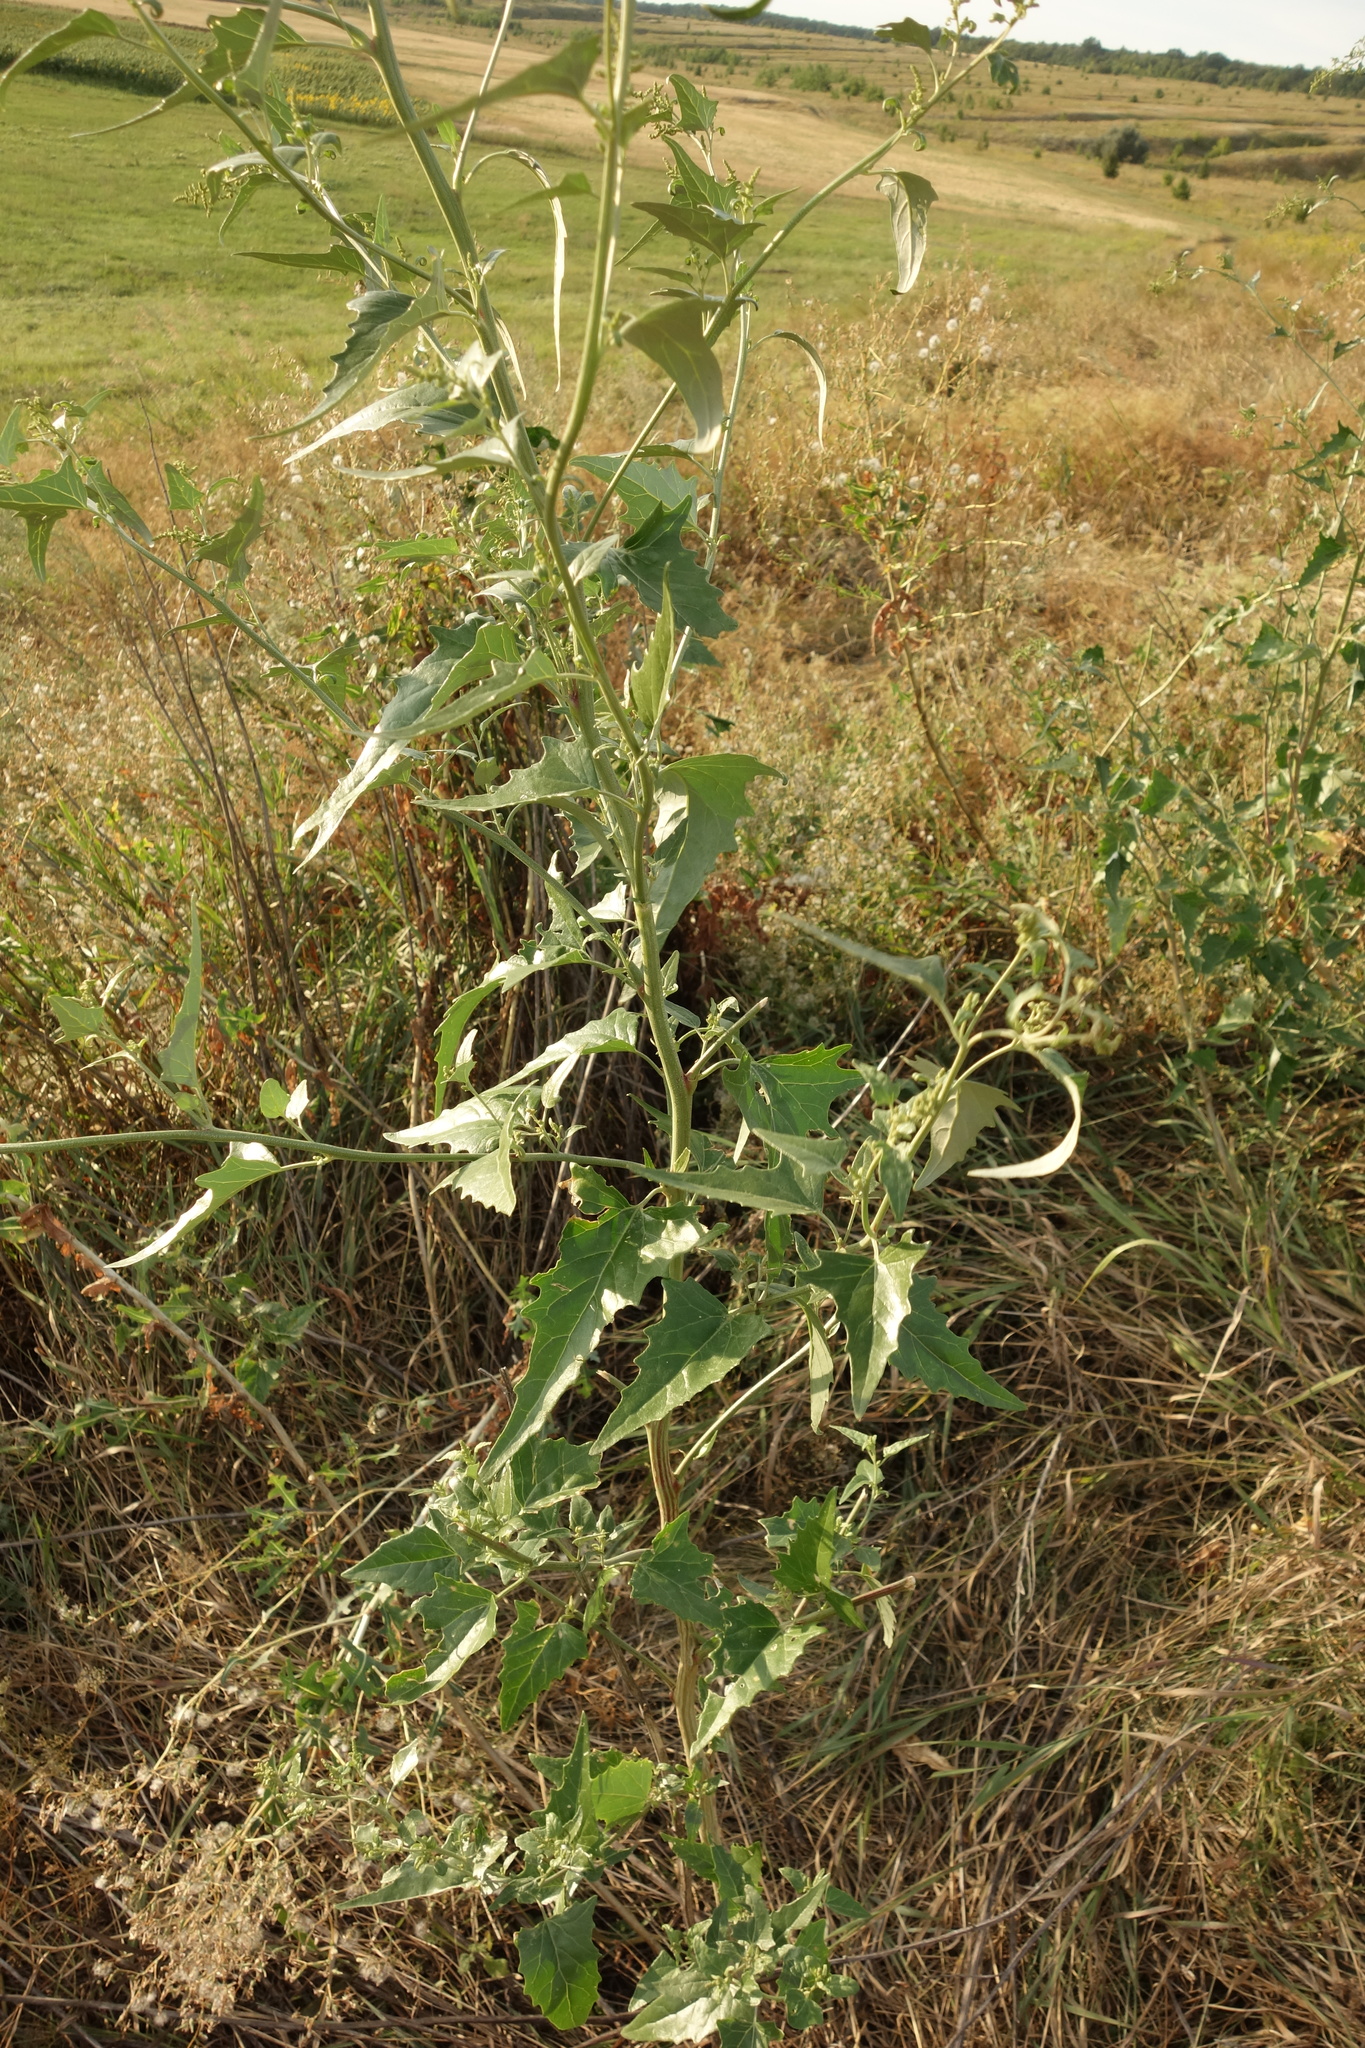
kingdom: Plantae
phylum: Tracheophyta
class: Magnoliopsida
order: Caryophyllales
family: Amaranthaceae
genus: Atriplex
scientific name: Atriplex sagittata
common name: Purple orache
